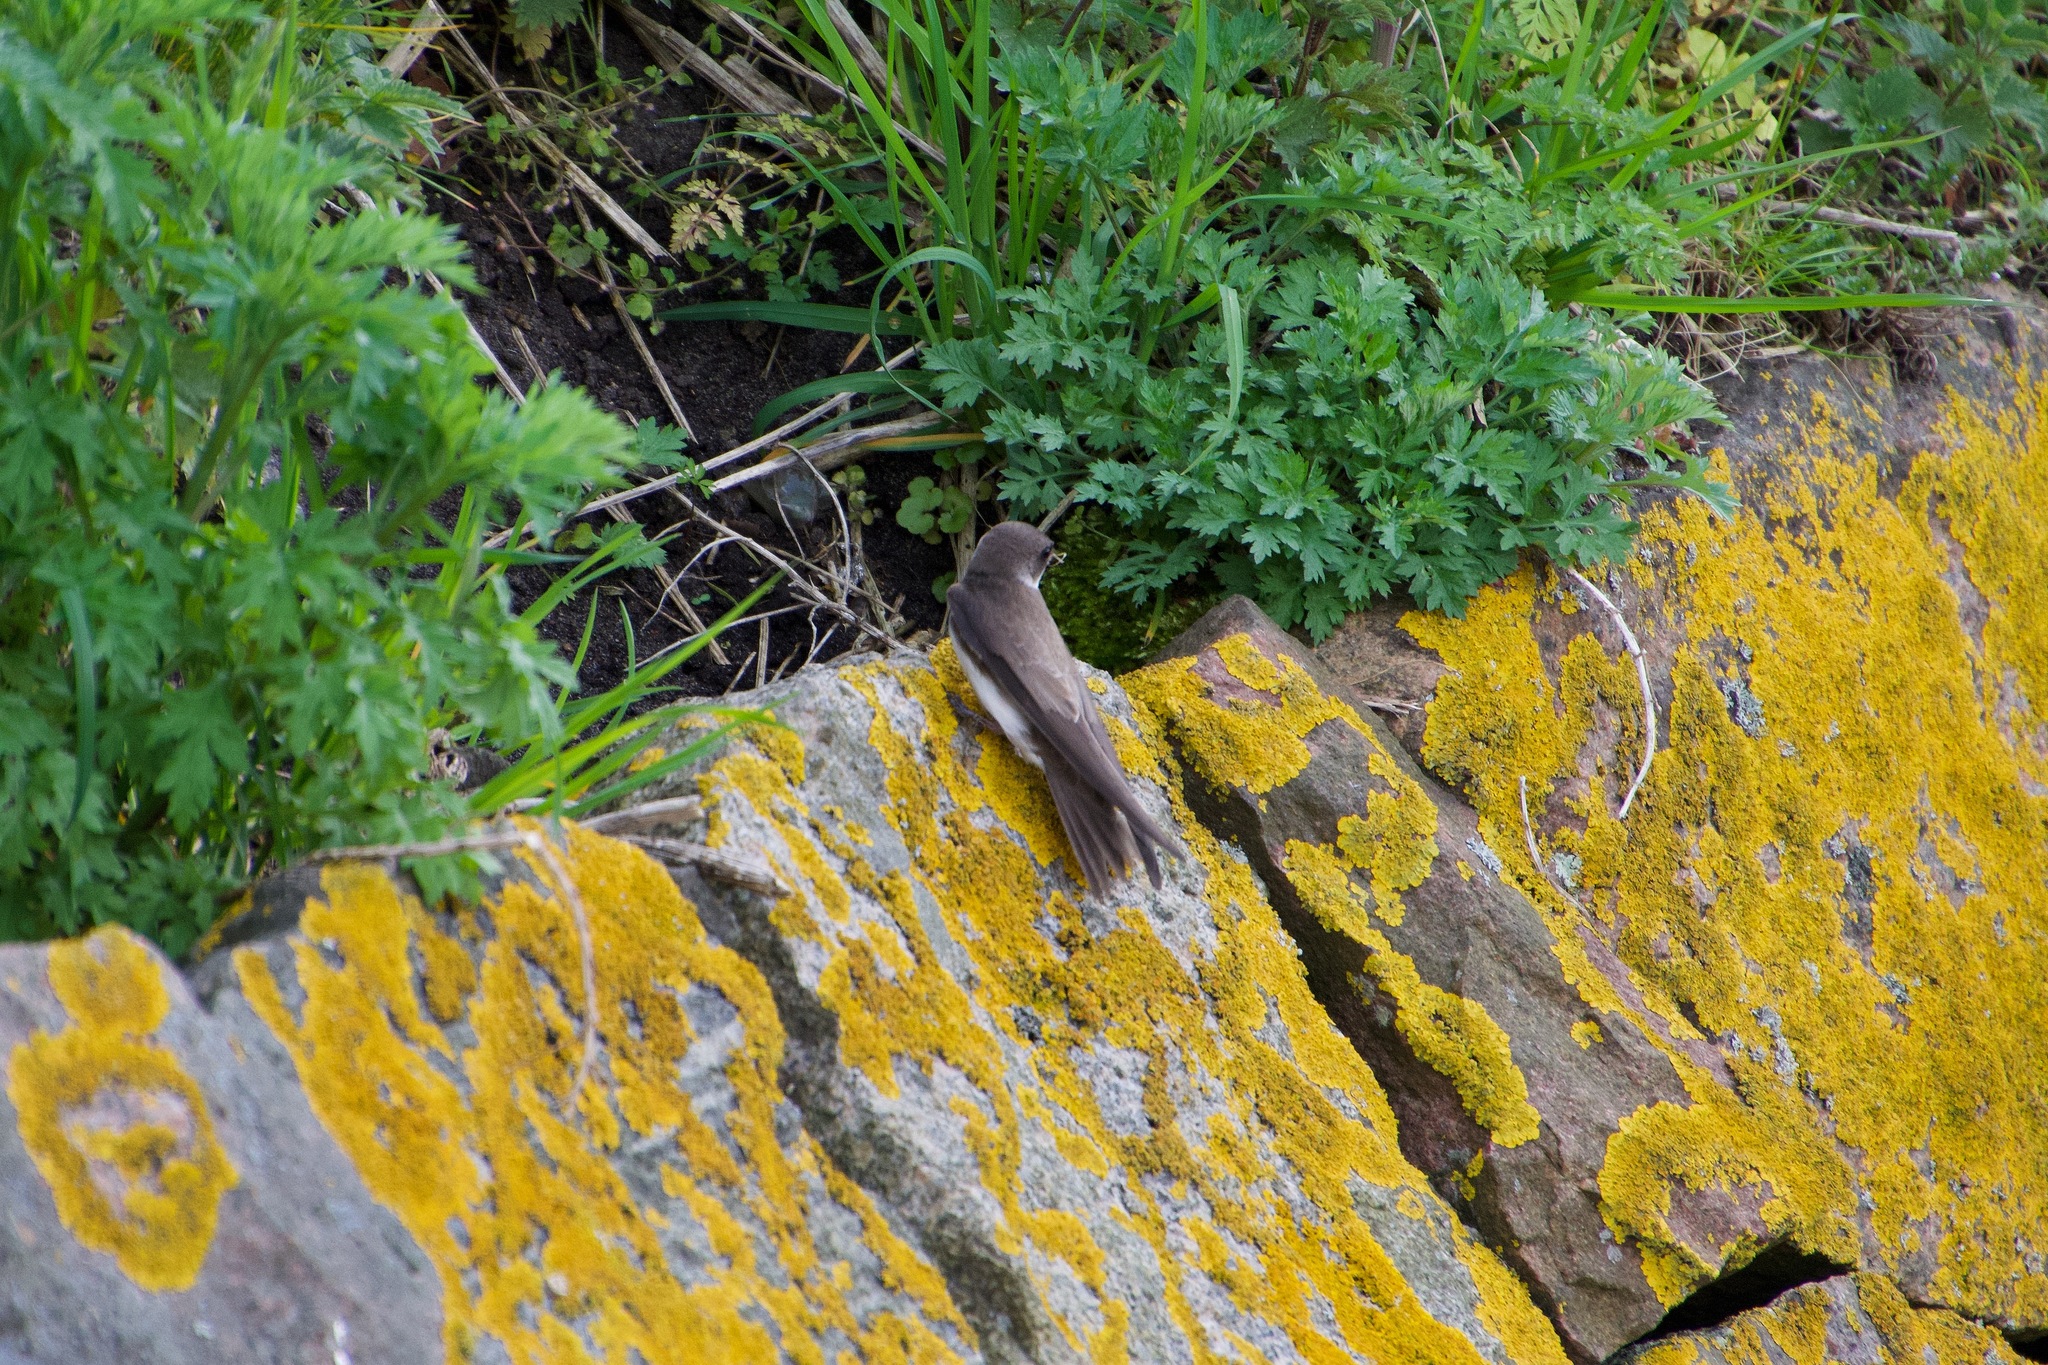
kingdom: Animalia
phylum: Chordata
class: Aves
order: Passeriformes
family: Hirundinidae
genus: Riparia
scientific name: Riparia riparia
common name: Sand martin
